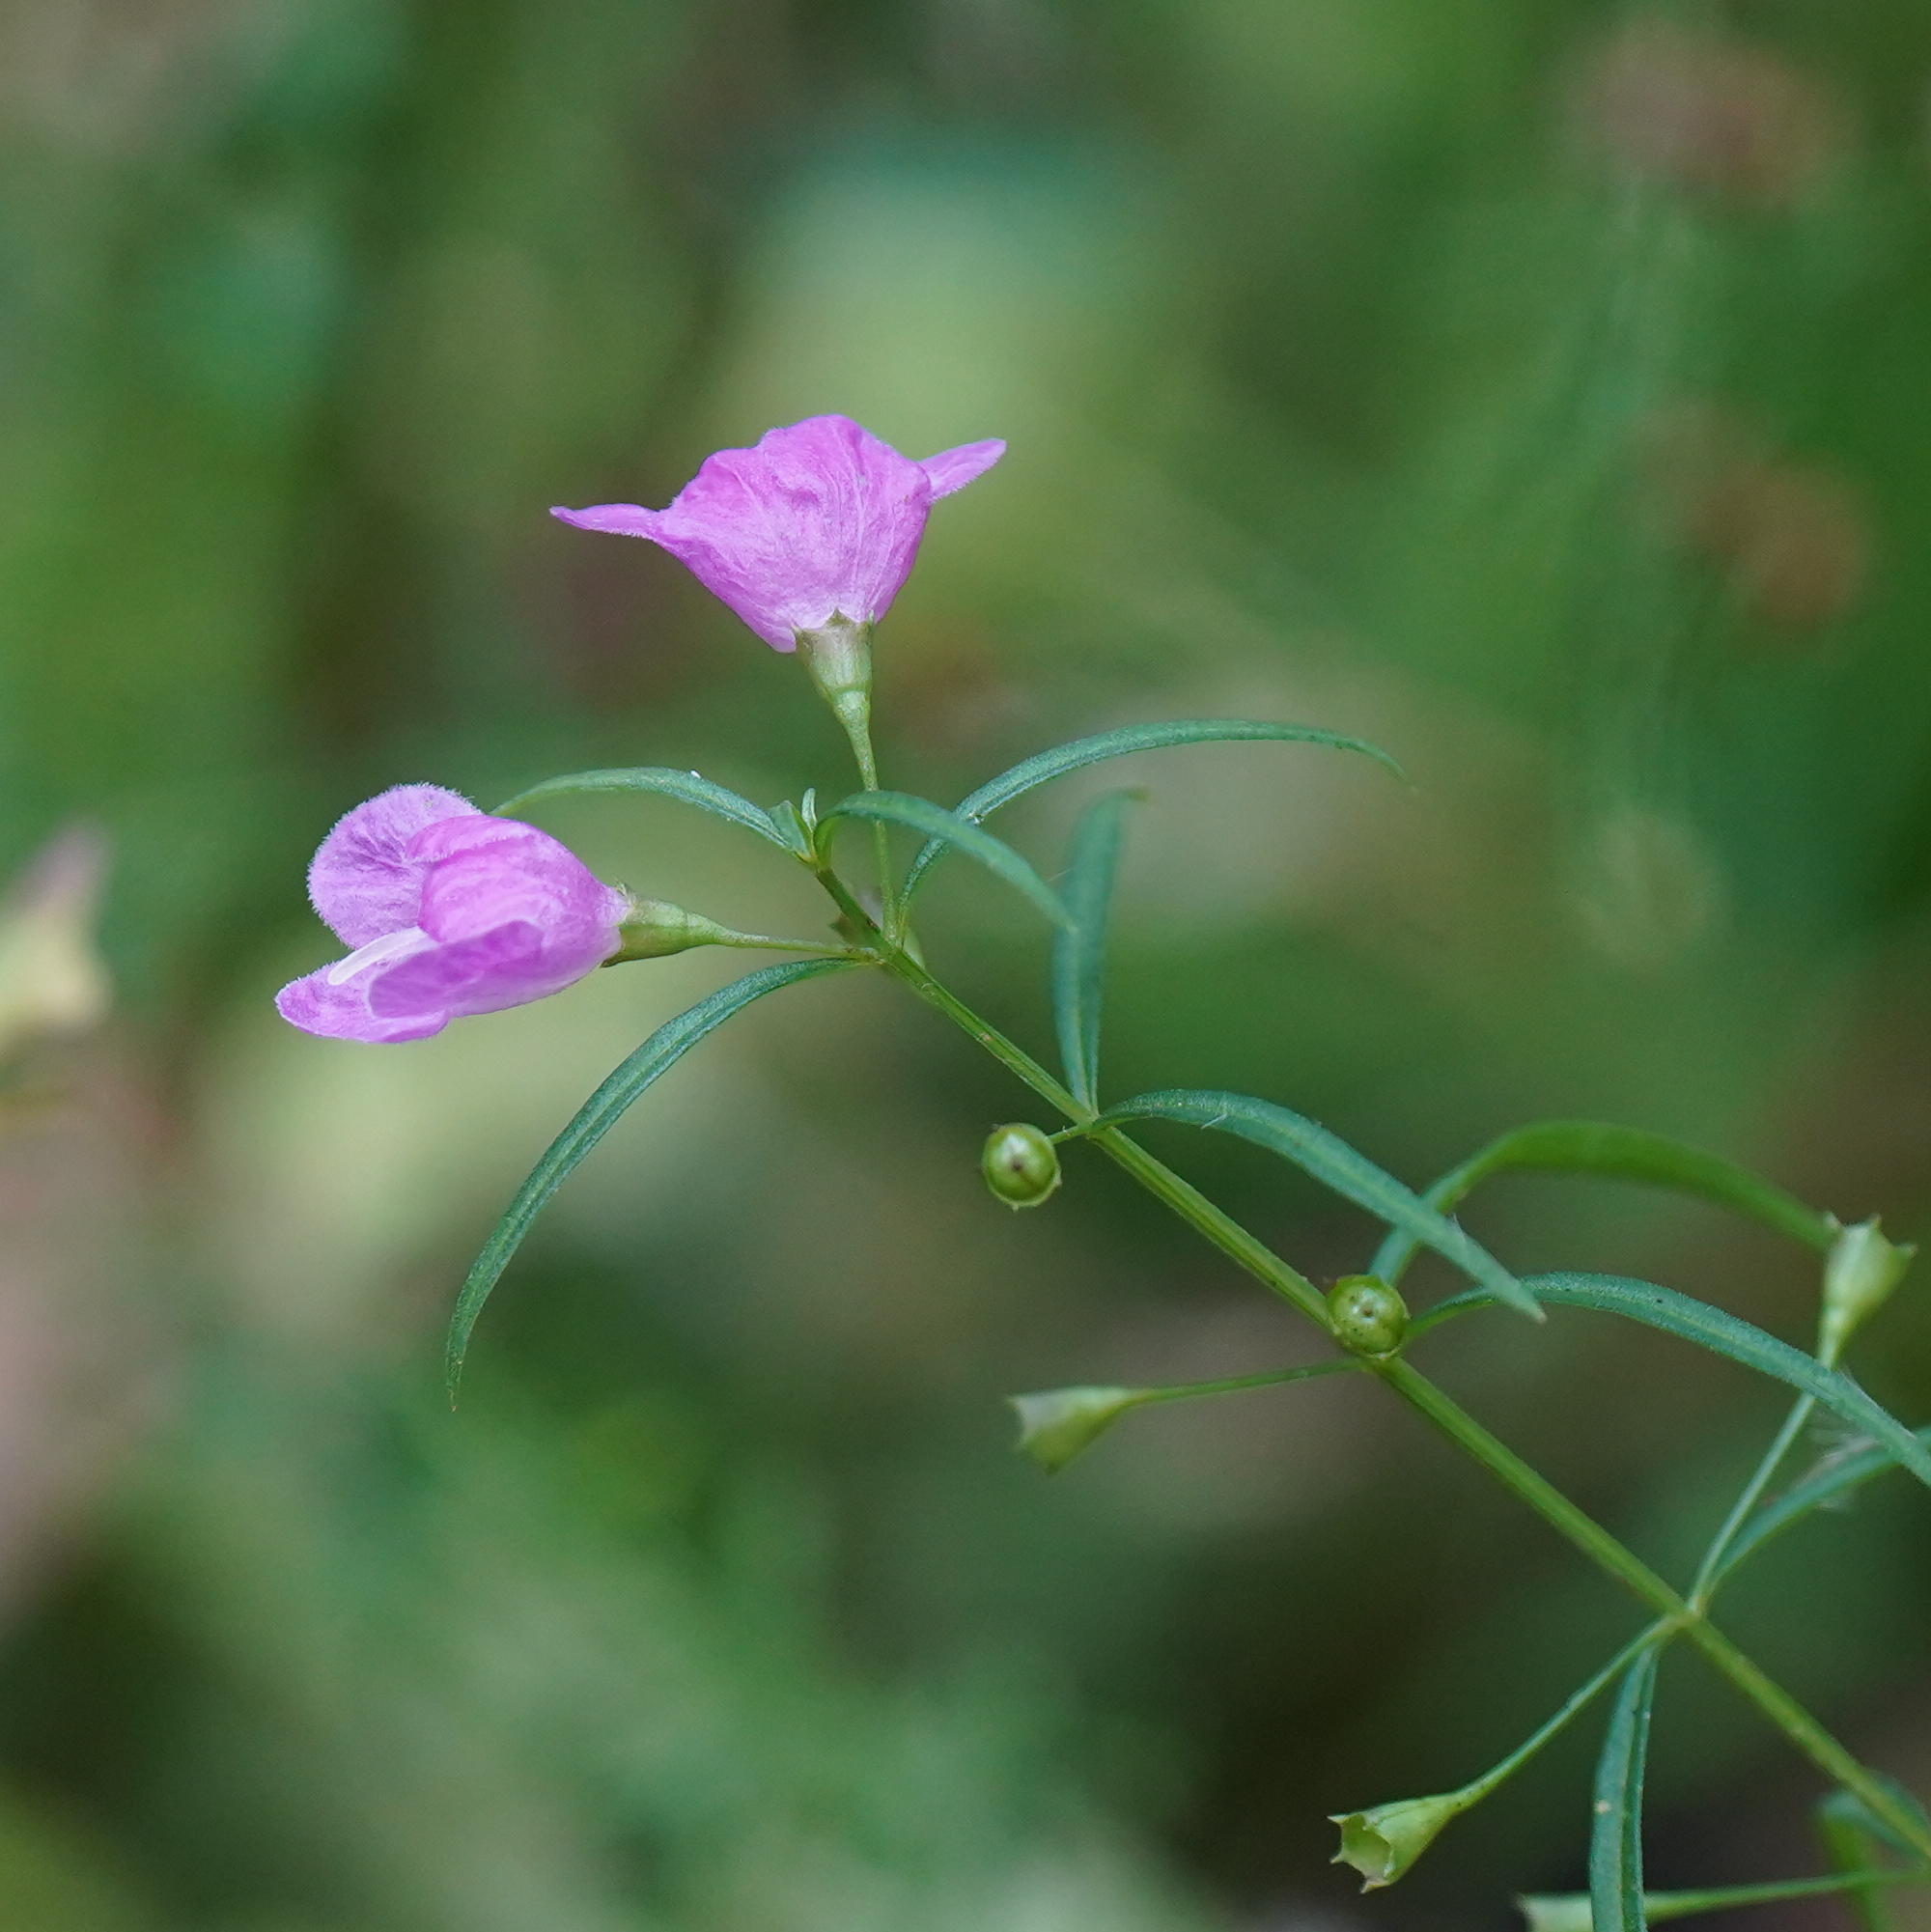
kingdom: Plantae
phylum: Tracheophyta
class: Magnoliopsida
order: Lamiales
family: Orobanchaceae
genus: Agalinis
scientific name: Agalinis tenuifolia
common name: Slender agalinis
